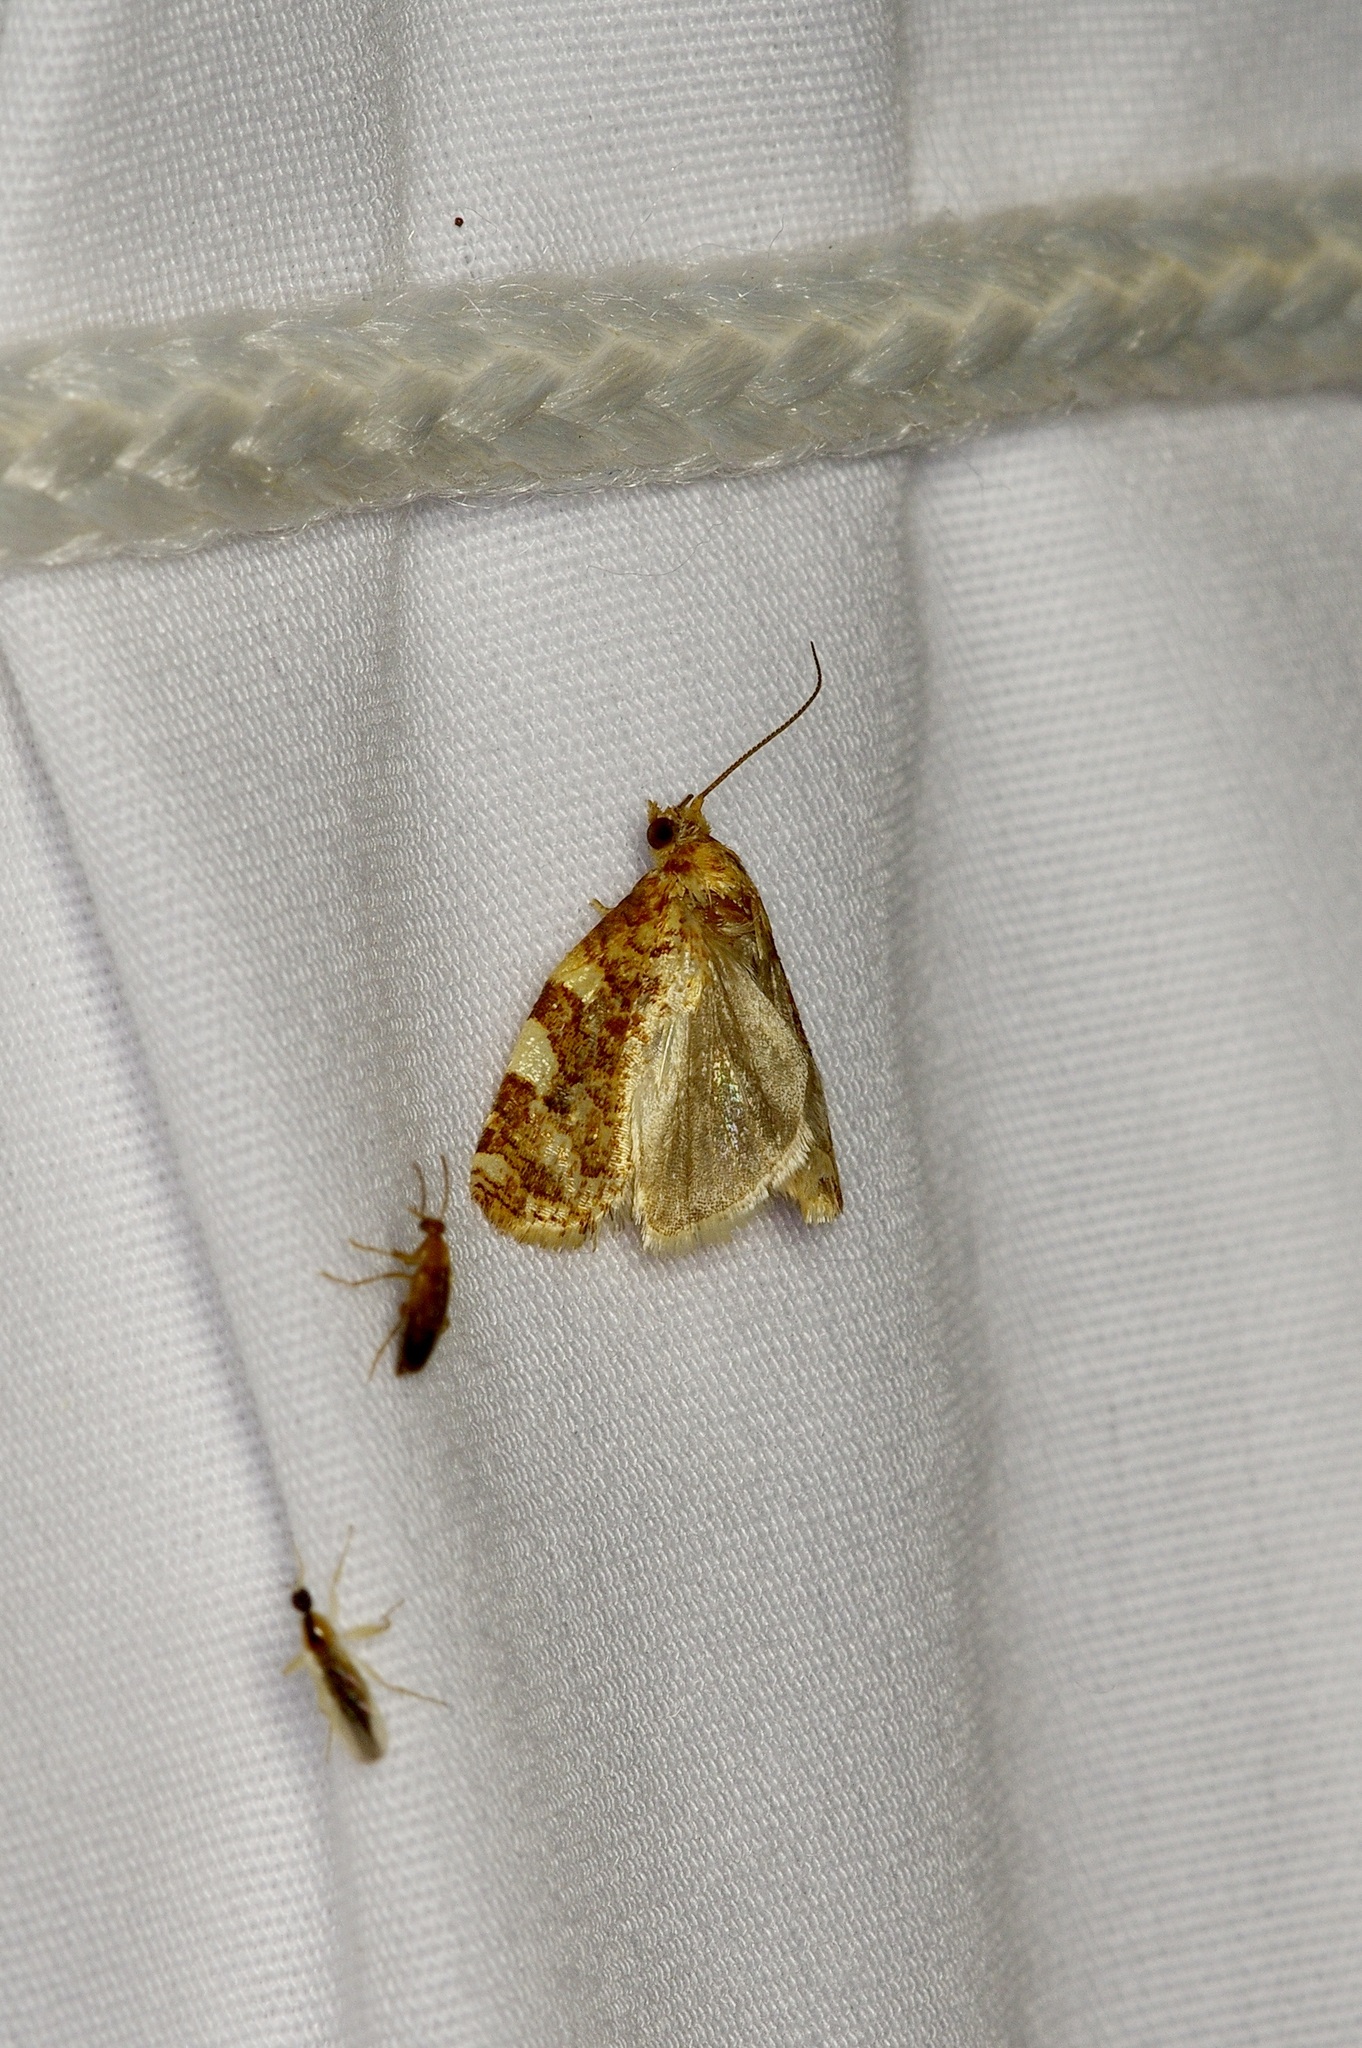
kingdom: Animalia
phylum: Arthropoda
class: Insecta
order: Lepidoptera
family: Tortricidae
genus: Archips
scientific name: Archips argyrospila
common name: Fruit-tree leafroller moth
